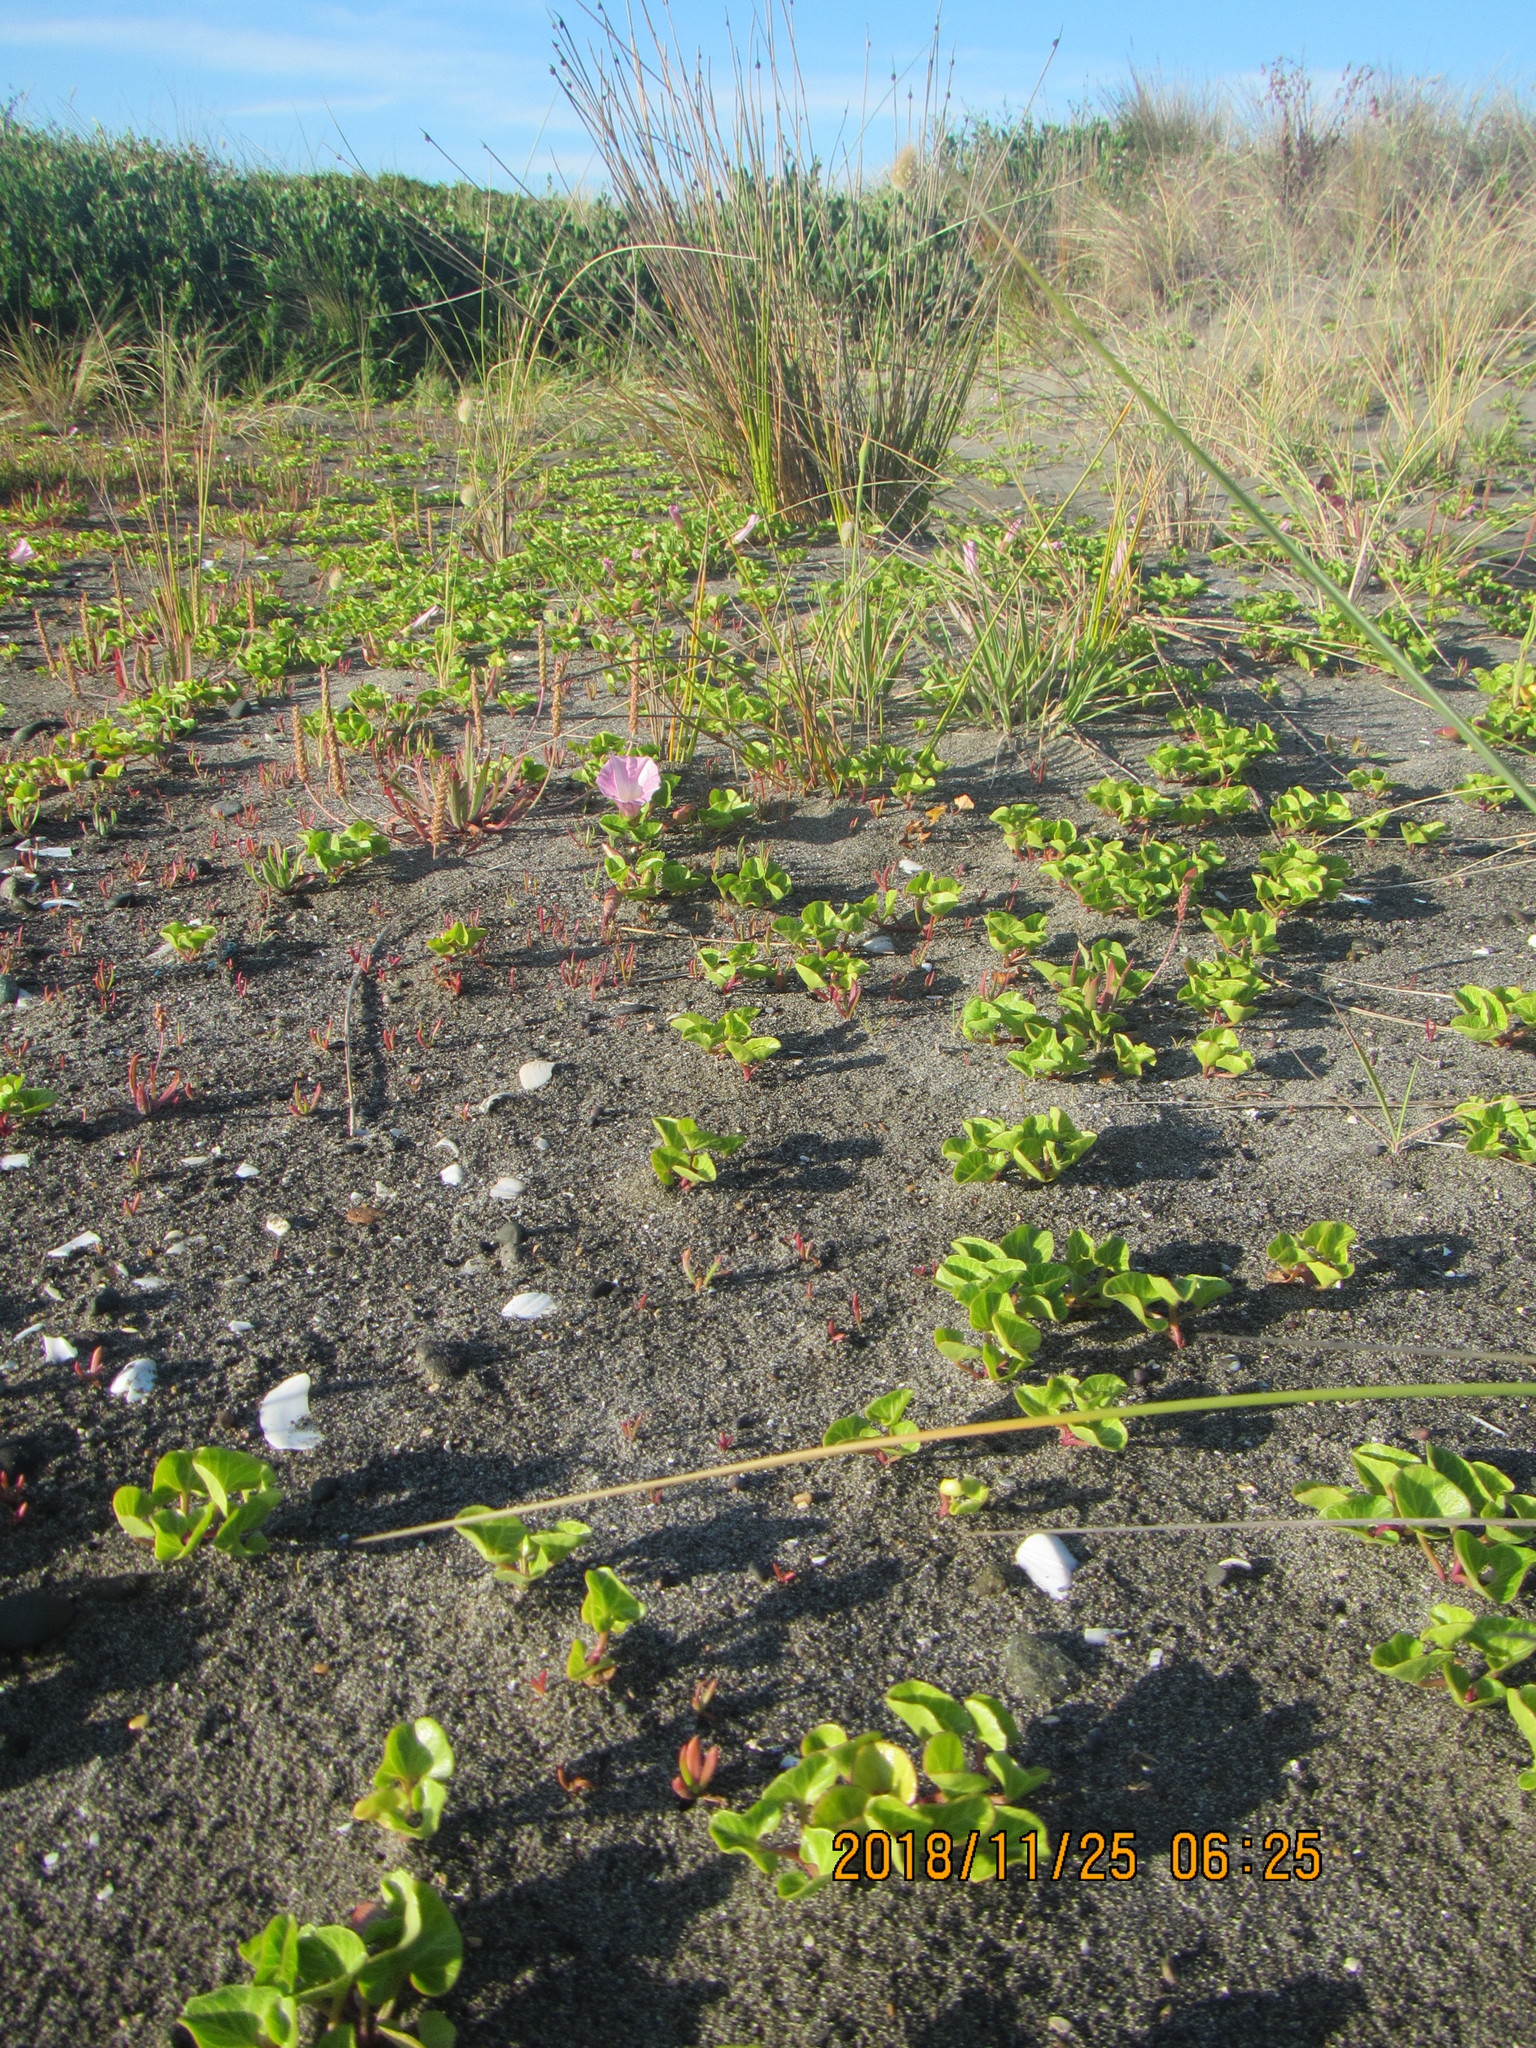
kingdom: Plantae
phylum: Tracheophyta
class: Magnoliopsida
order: Solanales
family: Convolvulaceae
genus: Calystegia
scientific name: Calystegia soldanella
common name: Sea bindweed
